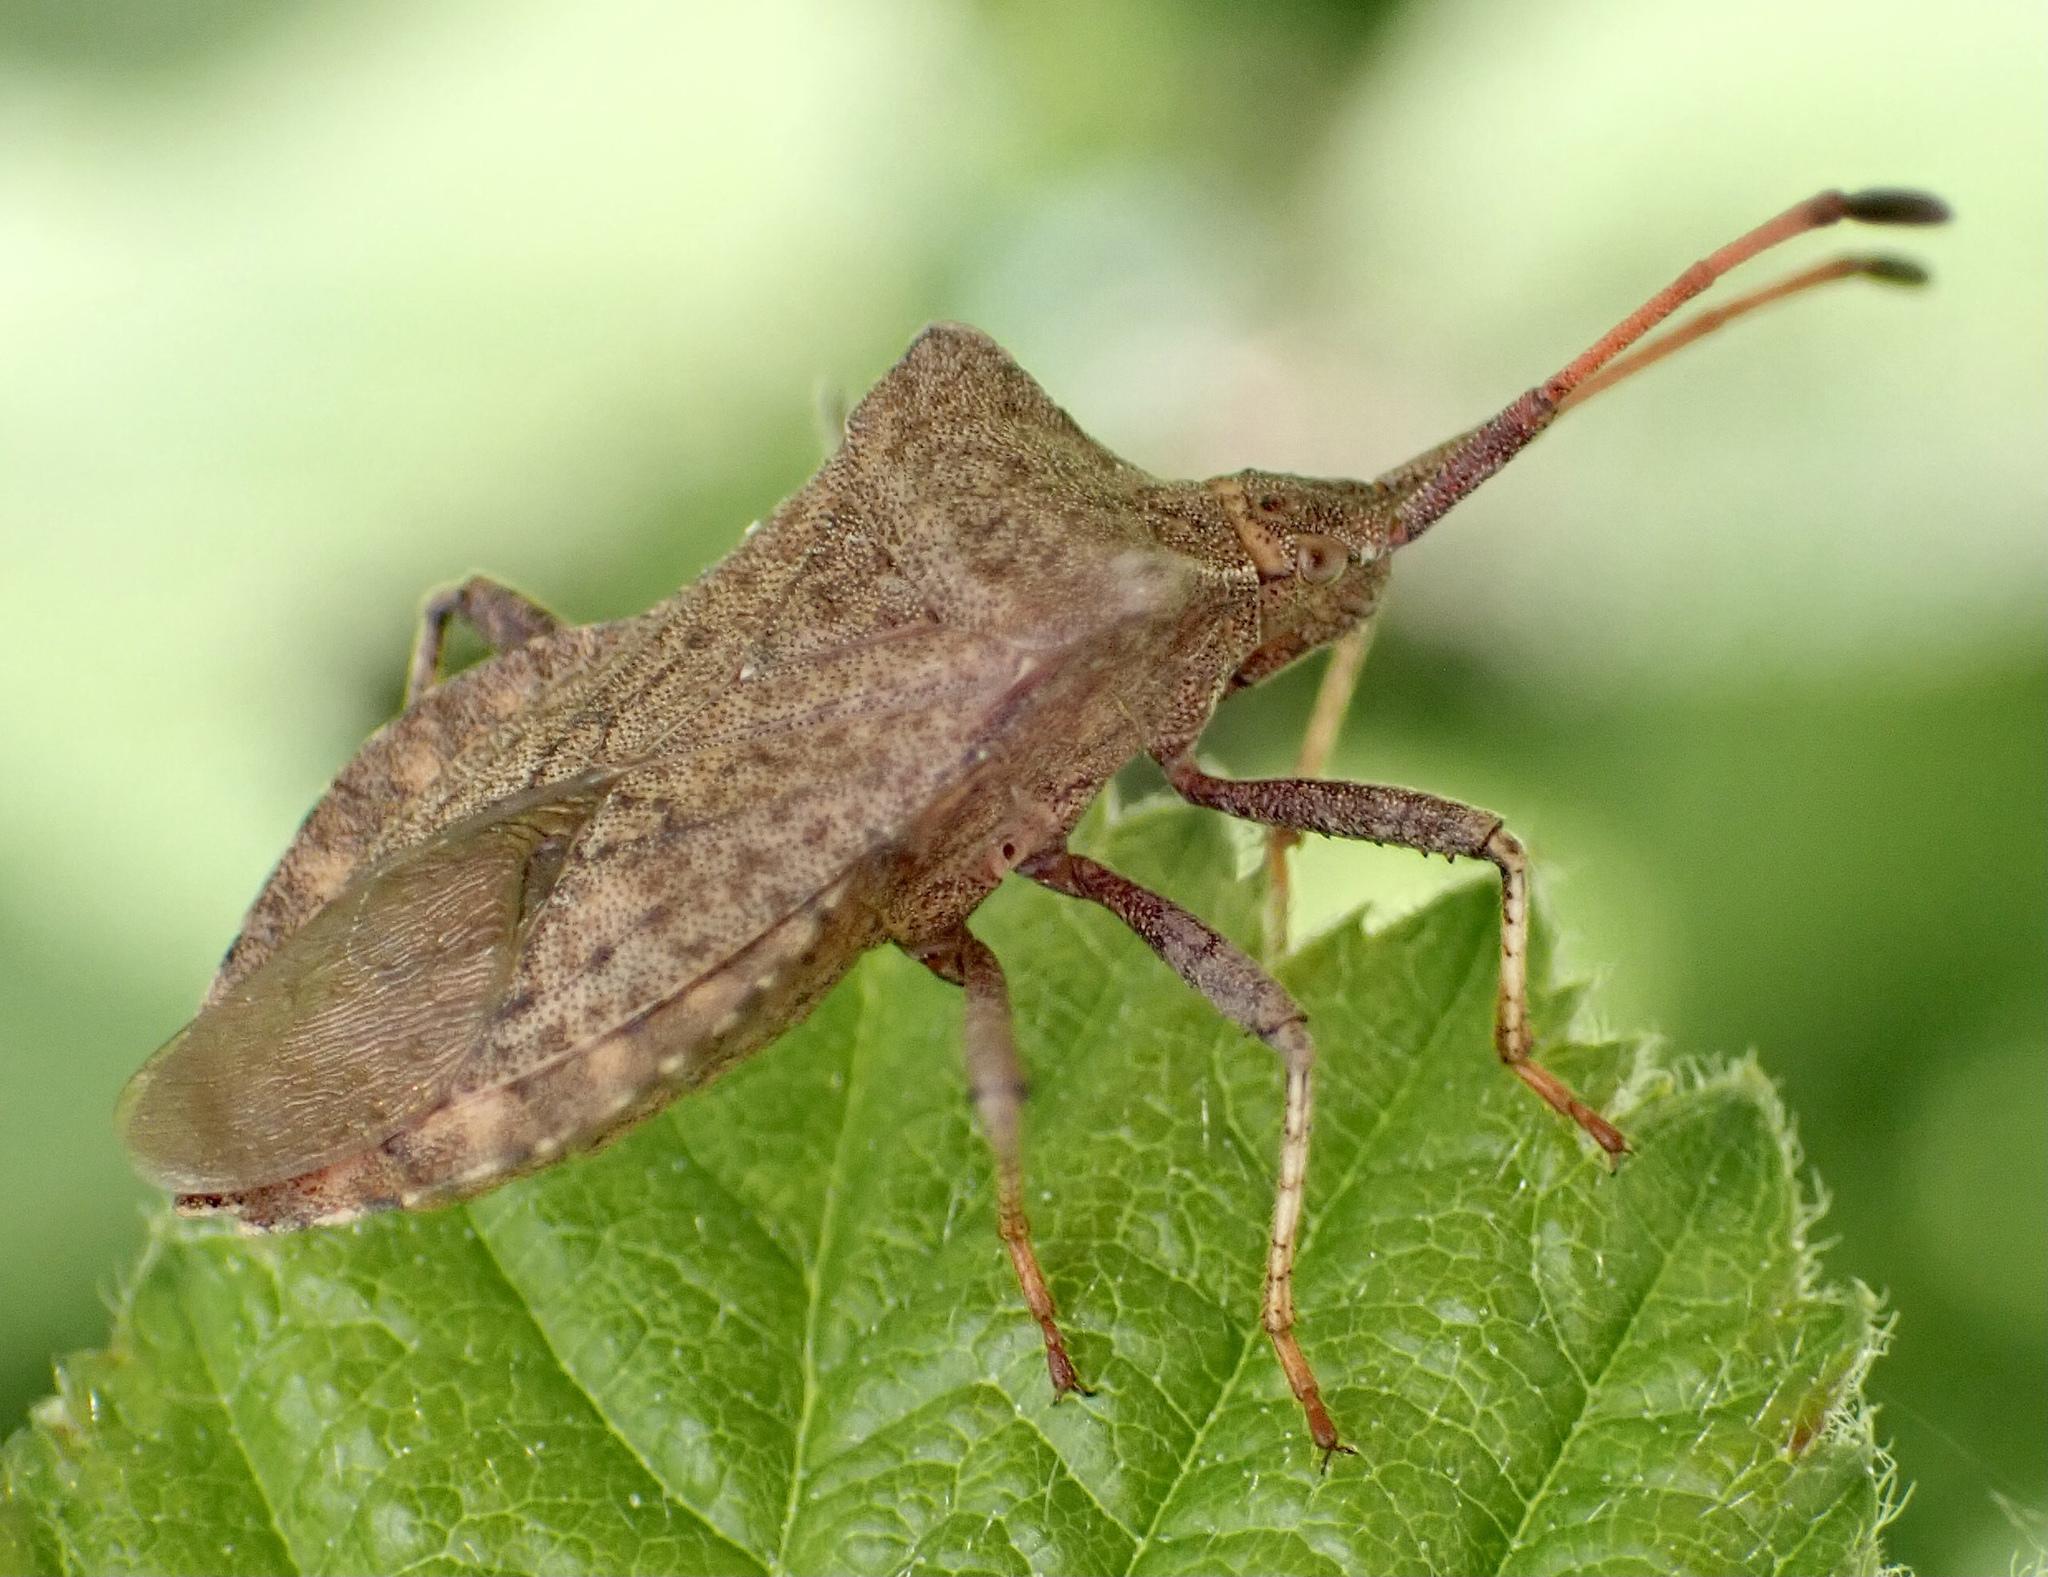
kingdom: Animalia
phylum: Arthropoda
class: Insecta
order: Hemiptera
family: Coreidae
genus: Coreus
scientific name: Coreus marginatus
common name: Dock bug
